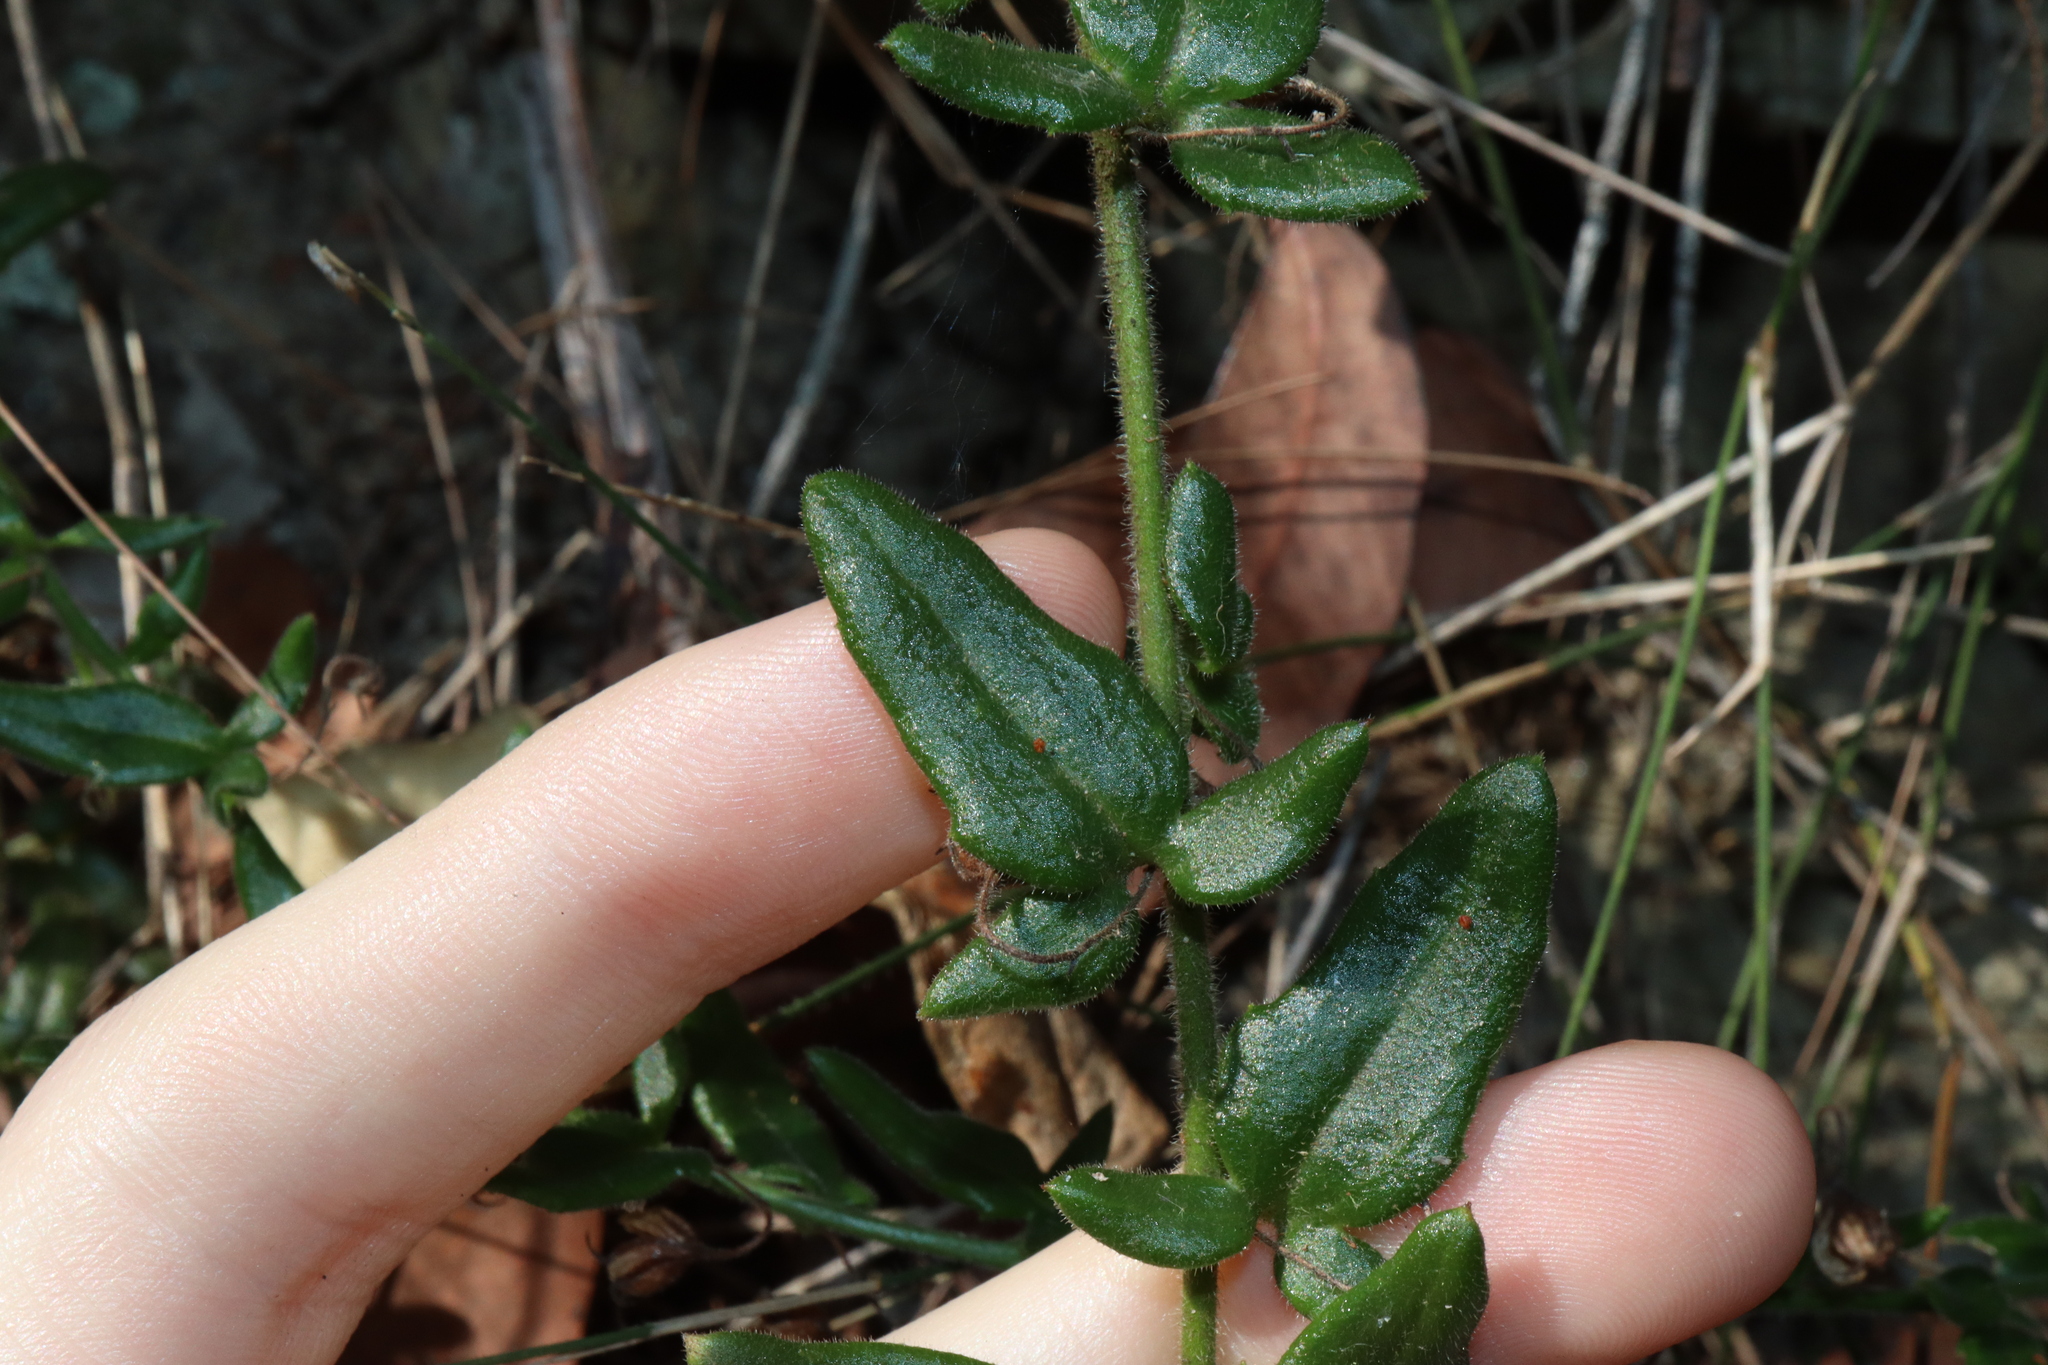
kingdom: Plantae
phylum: Tracheophyta
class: Magnoliopsida
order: Asterales
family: Goodeniaceae
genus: Goodenia
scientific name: Goodenia heterophylla
